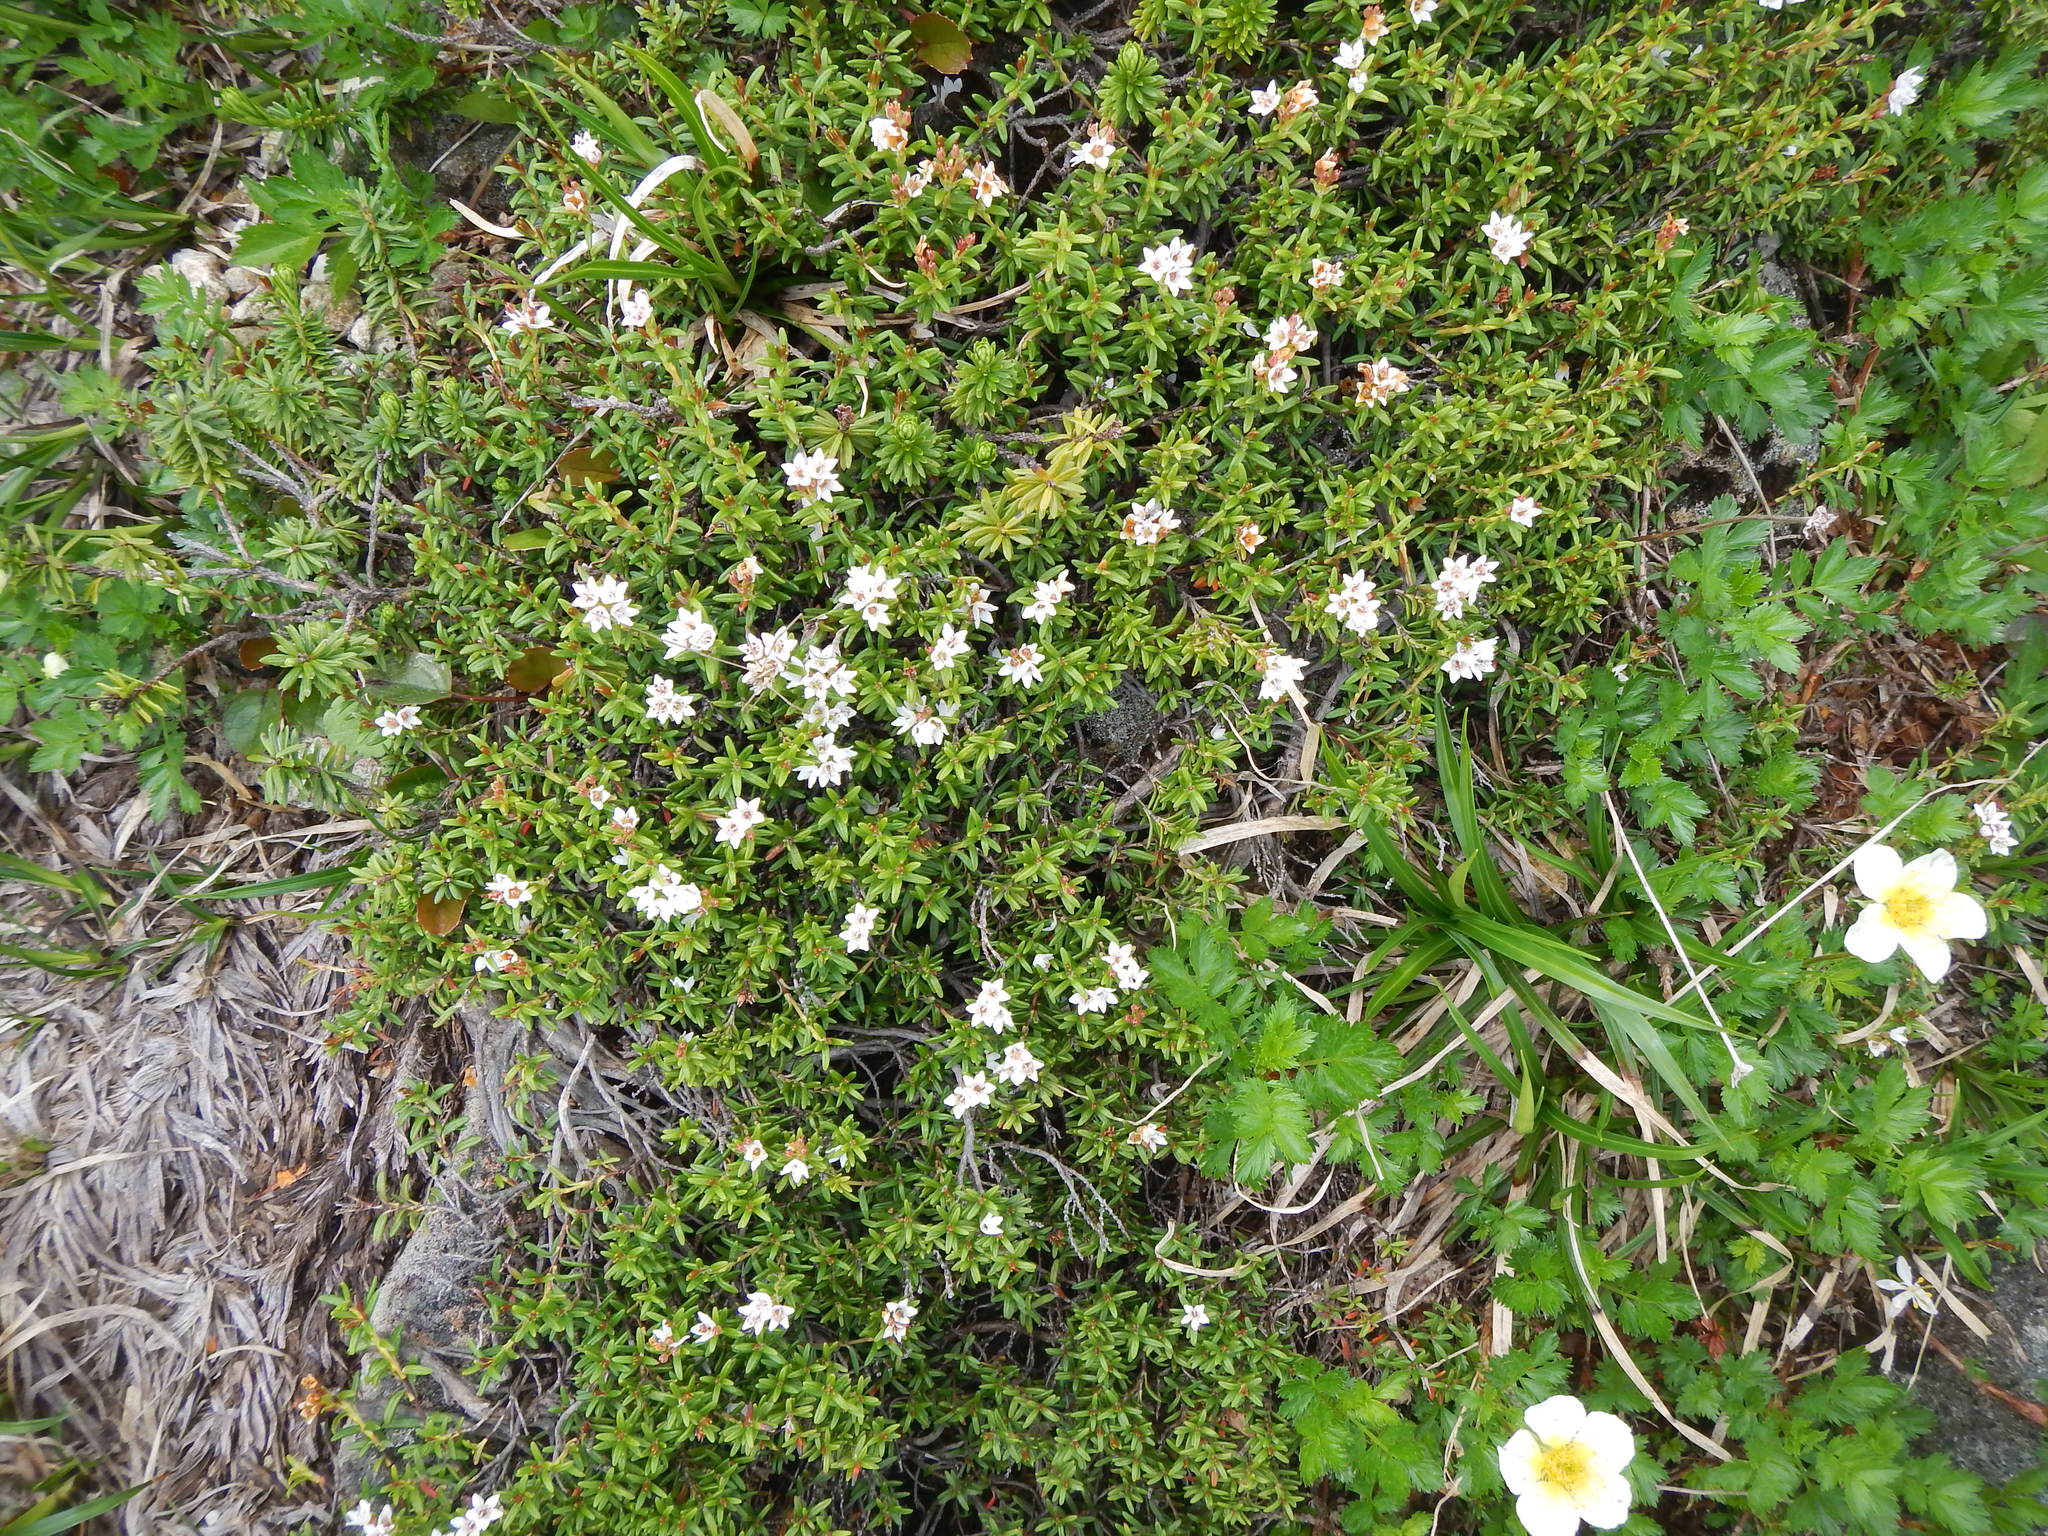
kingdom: Plantae
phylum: Tracheophyta
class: Magnoliopsida
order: Ericales
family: Ericaceae
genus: Kalmia
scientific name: Kalmia procumbens
